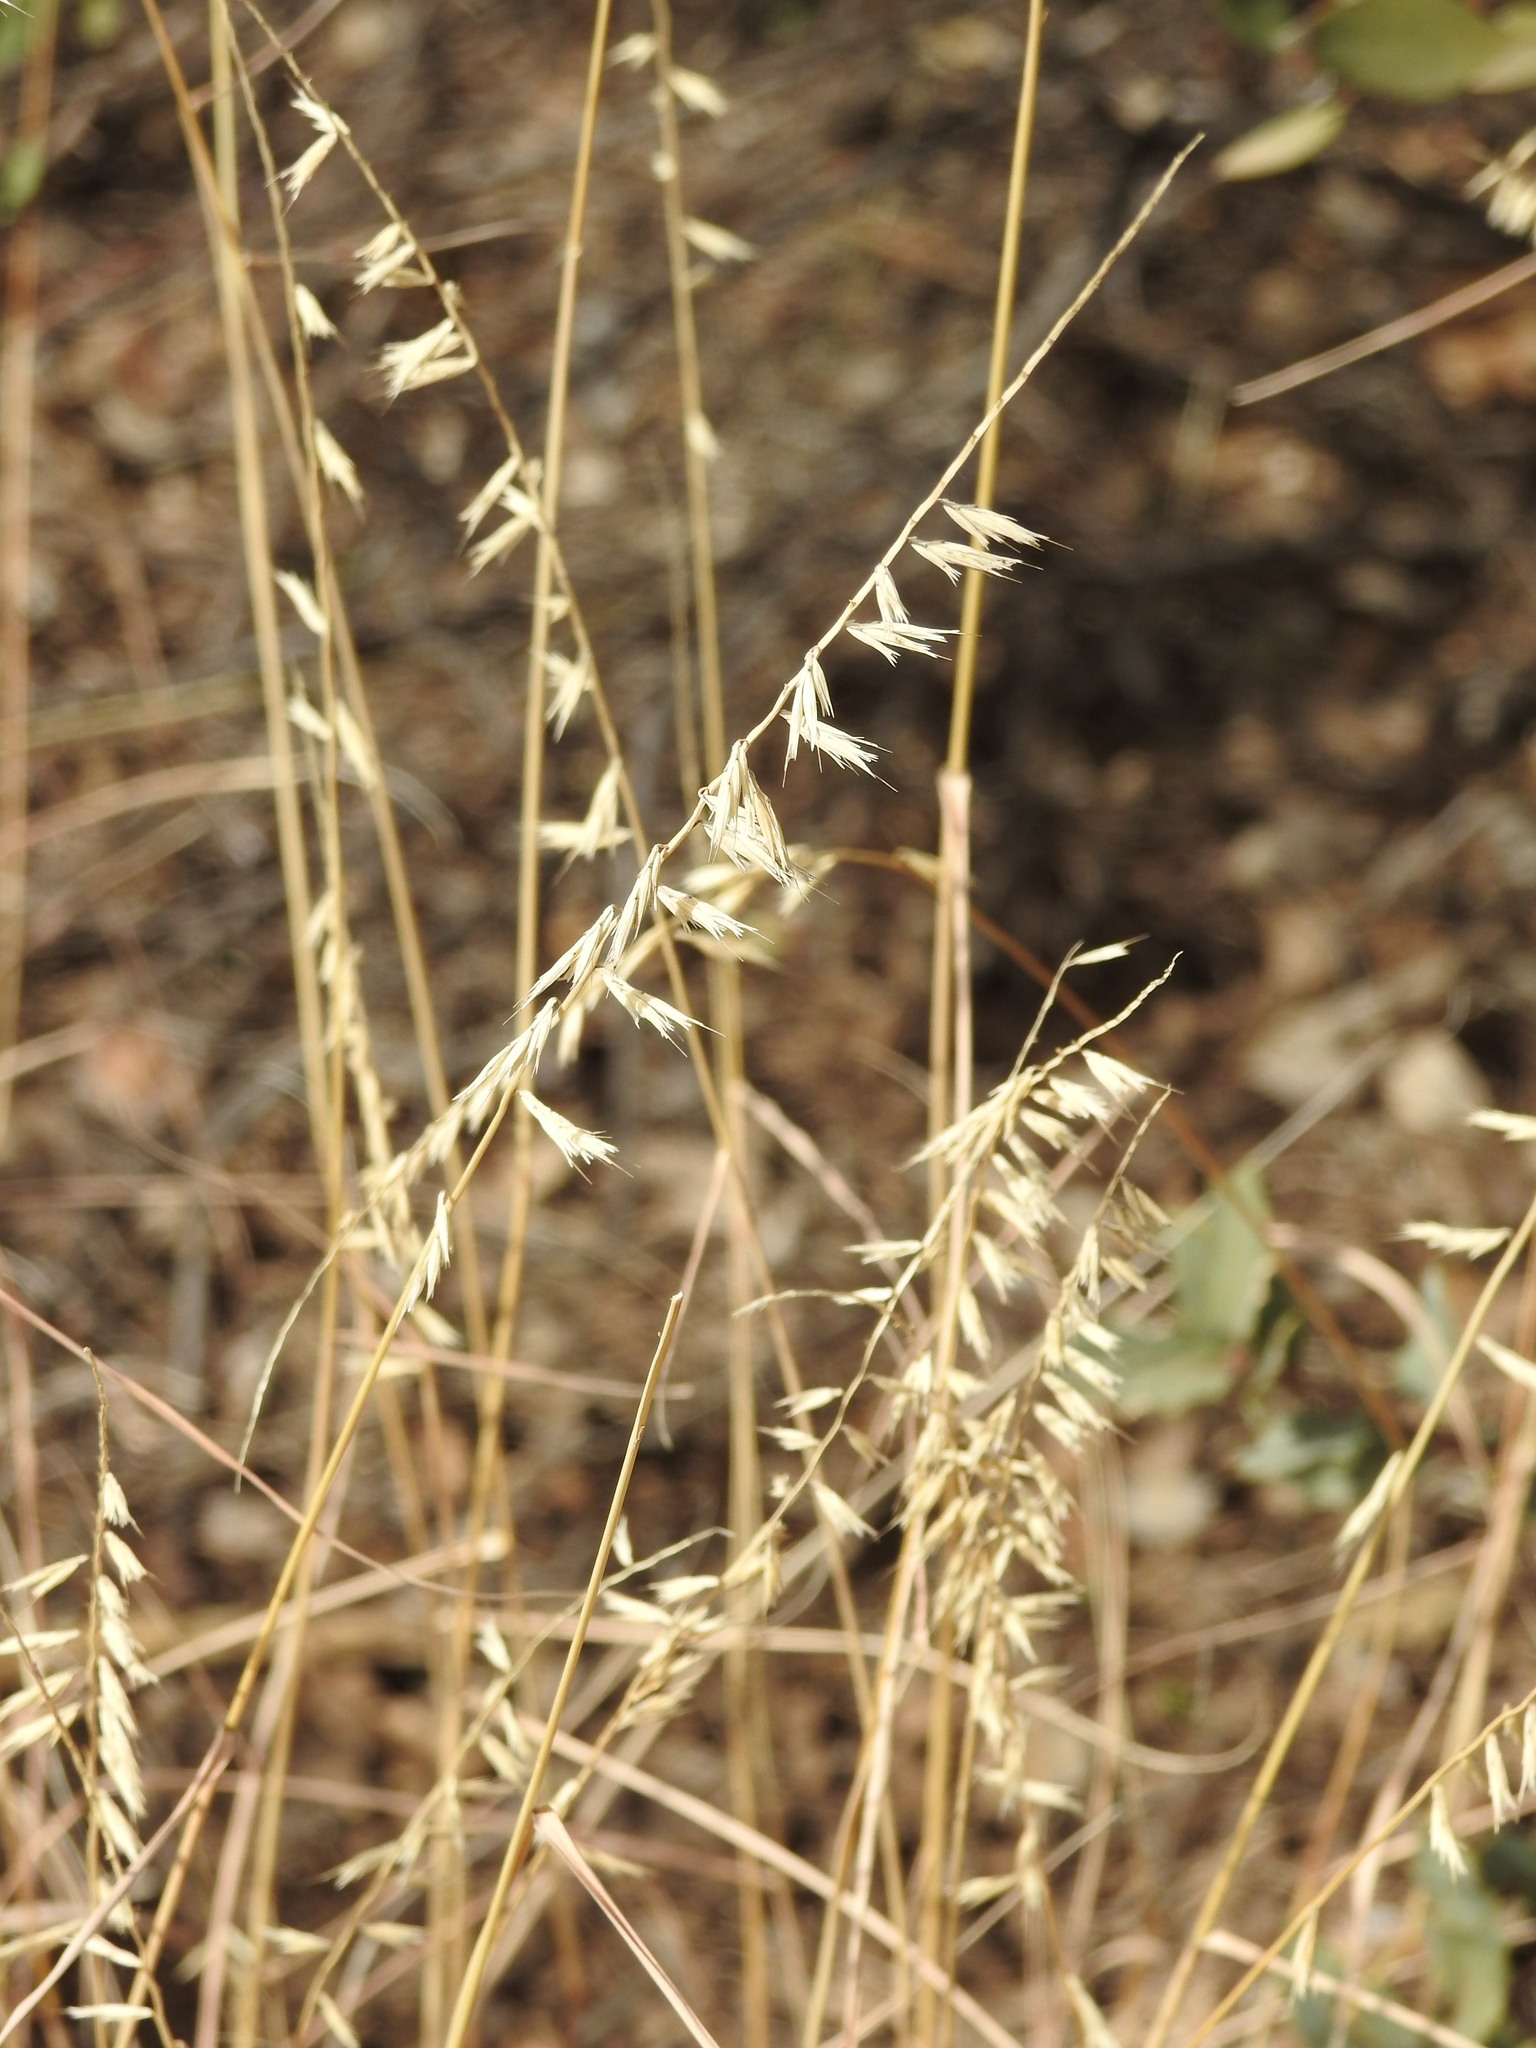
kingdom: Plantae
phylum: Tracheophyta
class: Liliopsida
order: Poales
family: Poaceae
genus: Bouteloua
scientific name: Bouteloua curtipendula
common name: Side-oats grama
